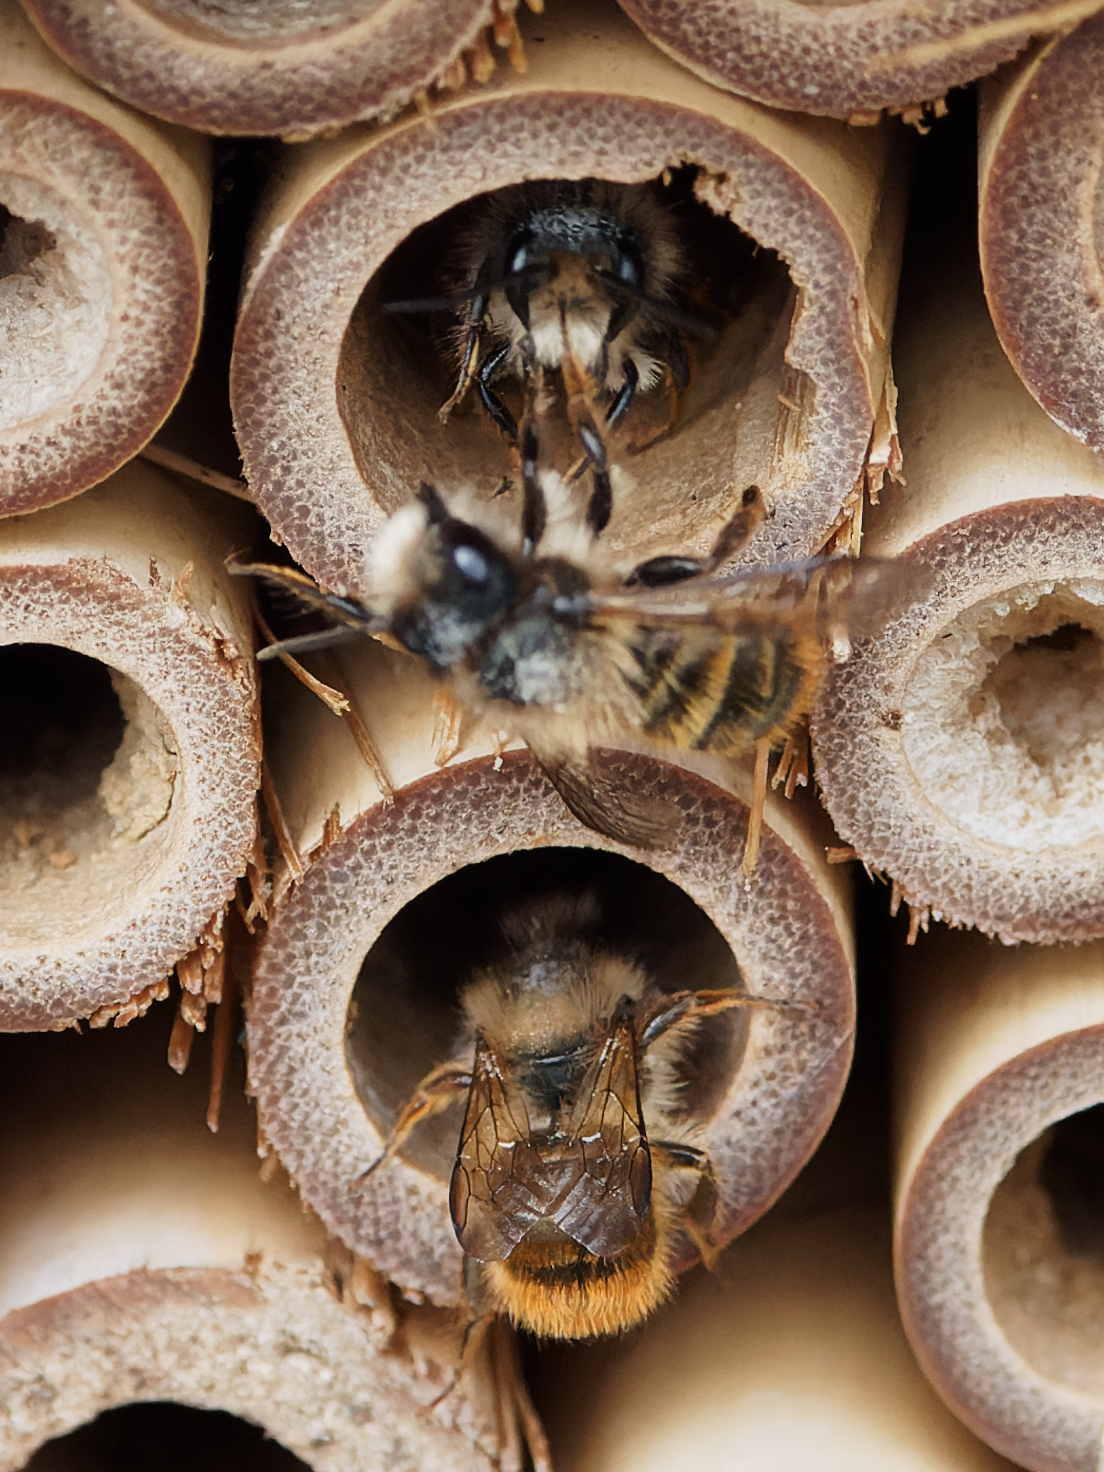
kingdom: Animalia
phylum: Arthropoda
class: Insecta
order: Hymenoptera
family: Megachilidae
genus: Osmia
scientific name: Osmia bicornis
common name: Red mason bee
